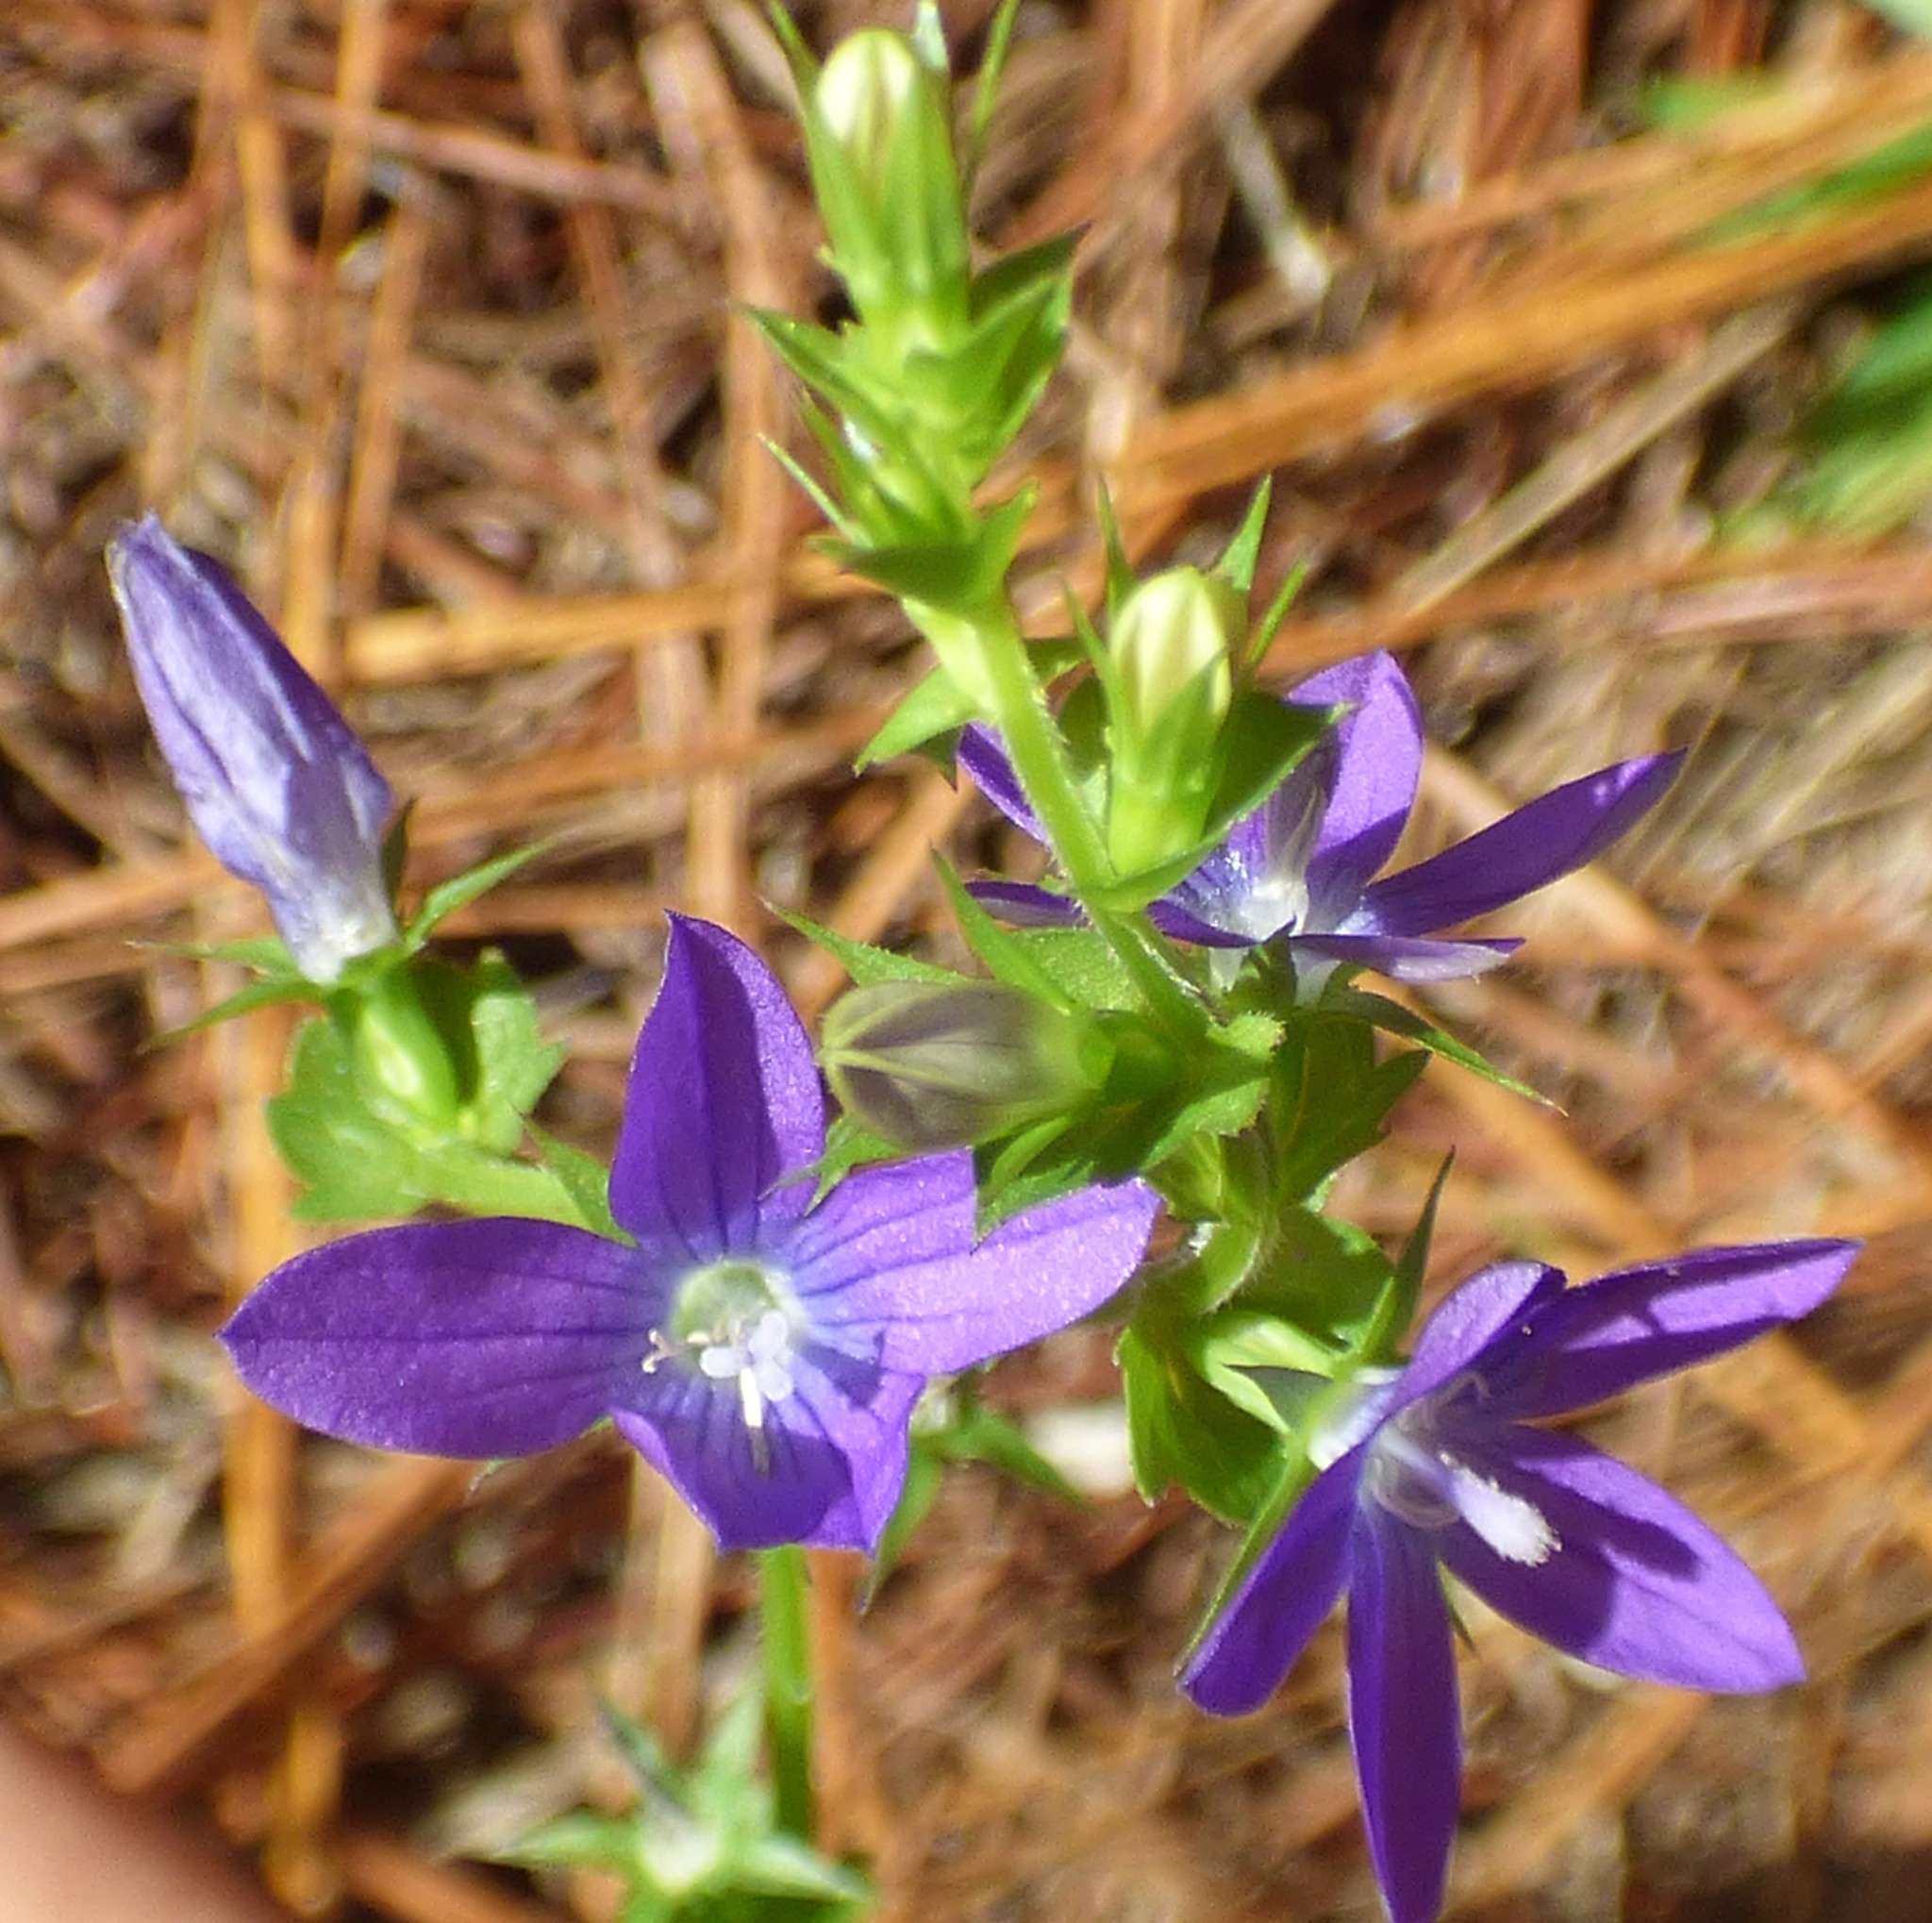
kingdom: Plantae
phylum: Tracheophyta
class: Magnoliopsida
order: Asterales
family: Campanulaceae
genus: Triodanis
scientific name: Triodanis perfoliata
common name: Clasping venus' looking-glass
